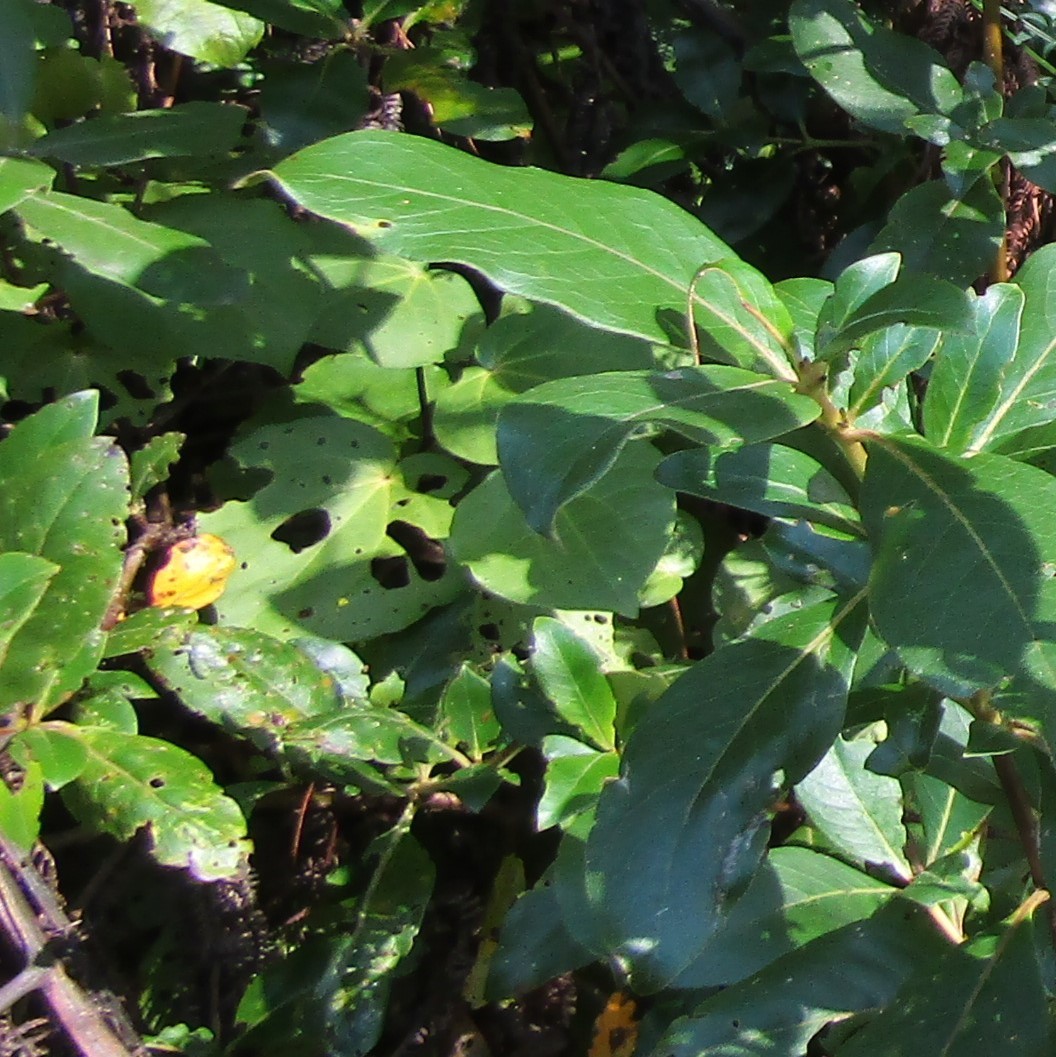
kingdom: Plantae
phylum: Tracheophyta
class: Magnoliopsida
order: Piperales
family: Piperaceae
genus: Macropiper
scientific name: Macropiper excelsum
